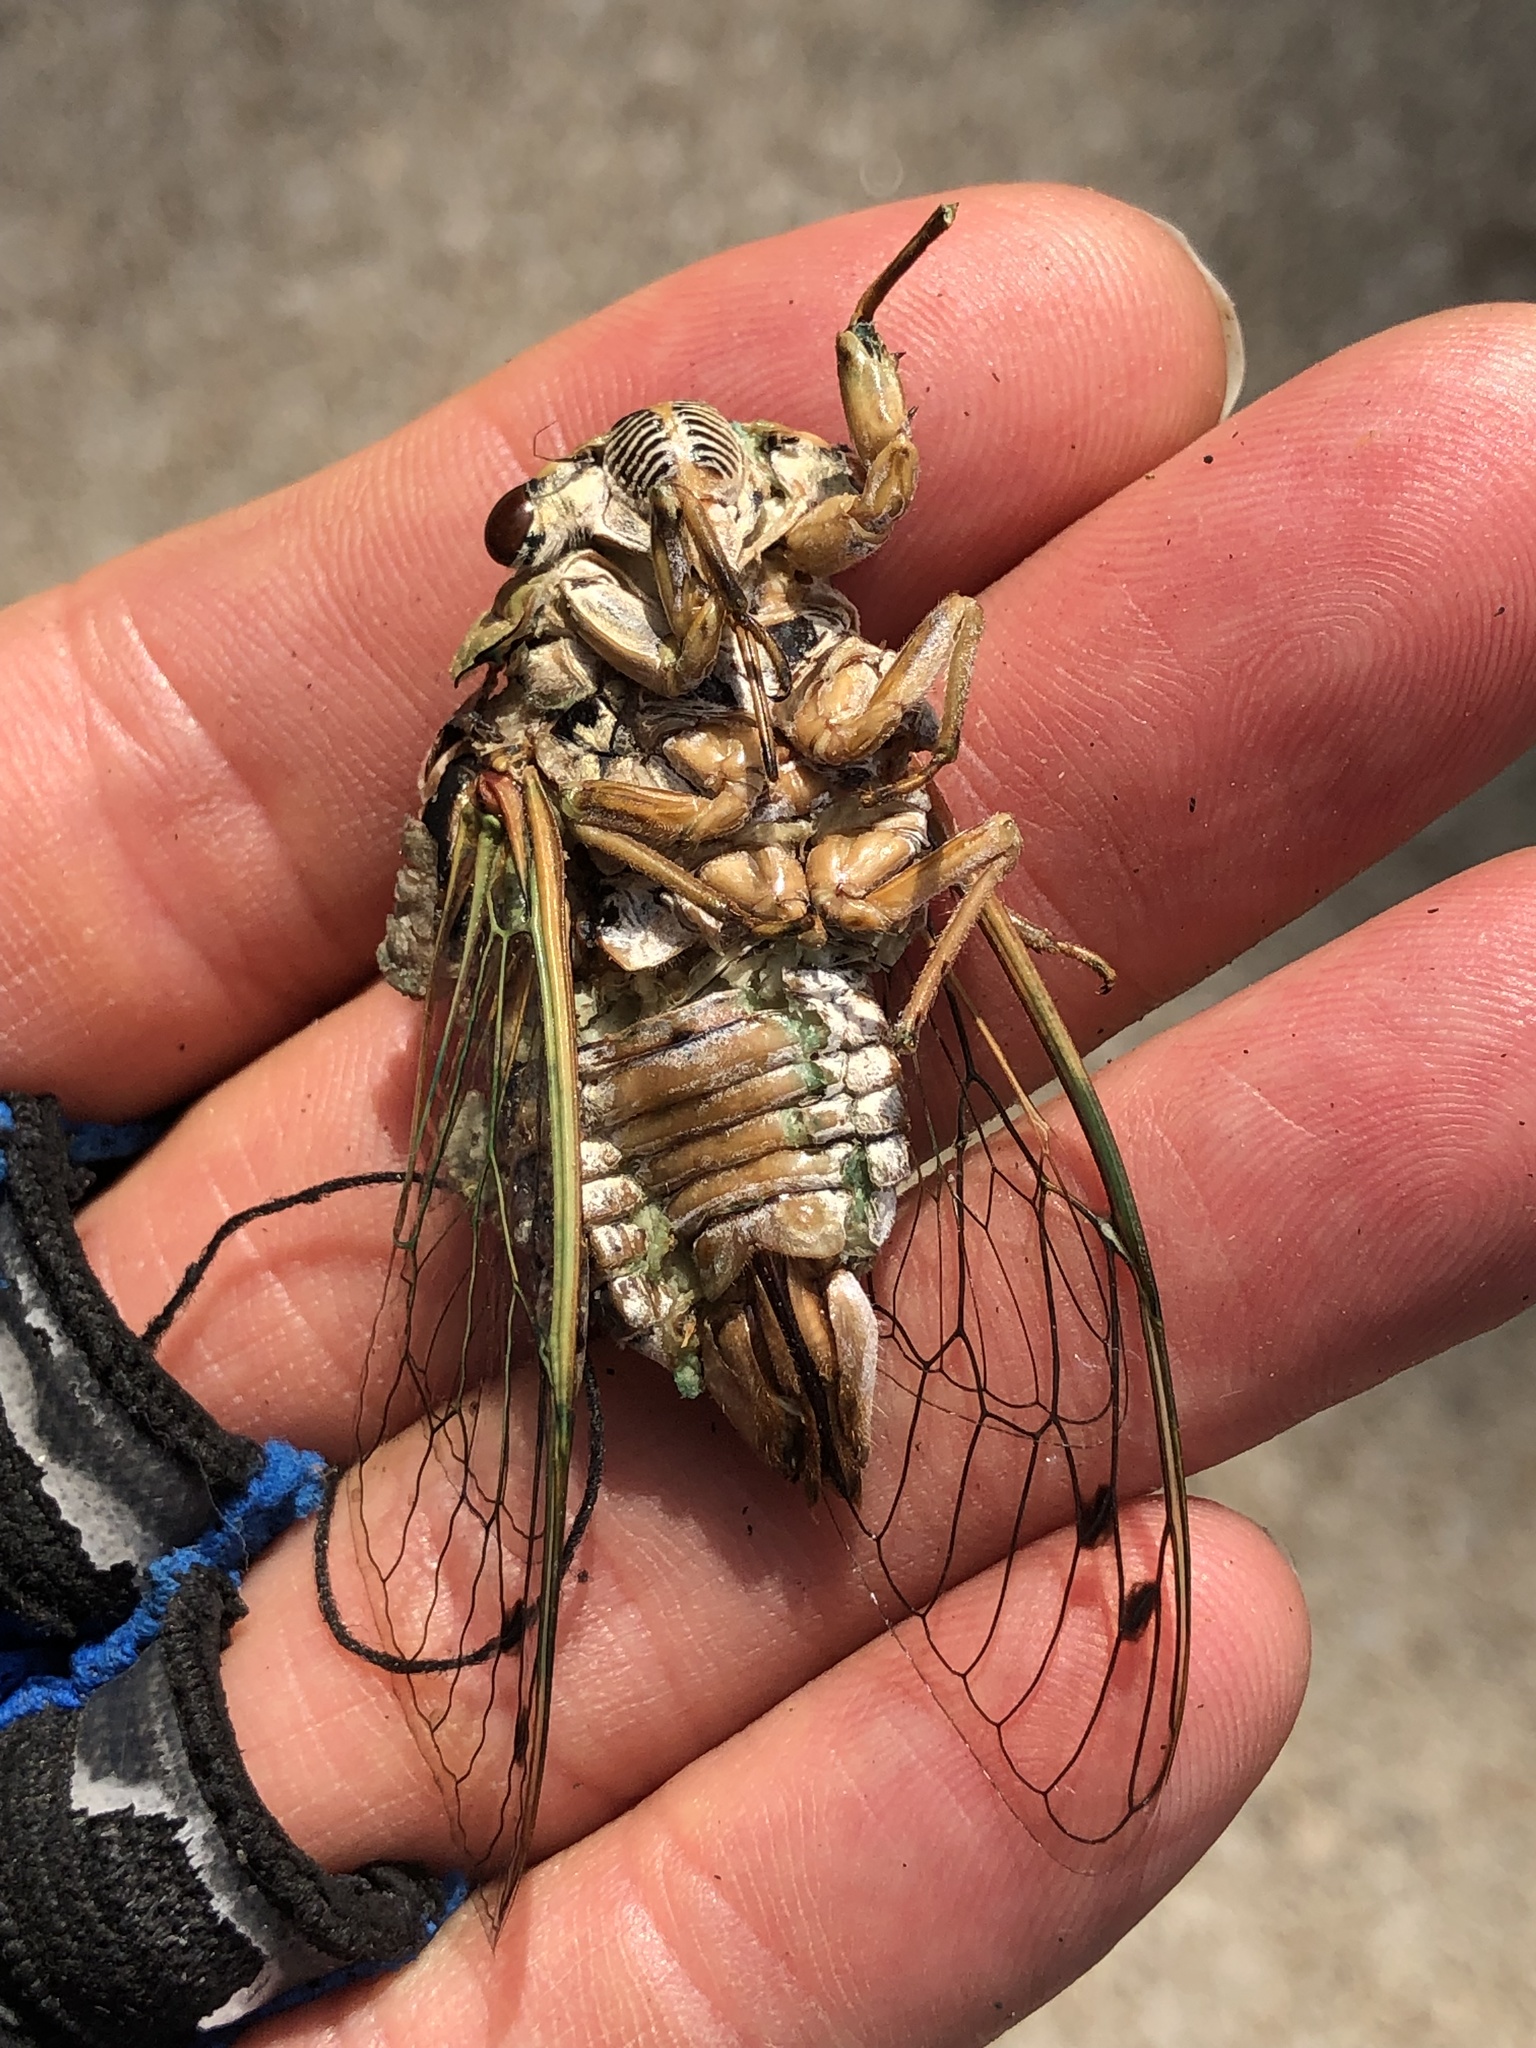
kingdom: Animalia
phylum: Arthropoda
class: Insecta
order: Hemiptera
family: Cicadidae
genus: Megatibicen
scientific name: Megatibicen resh
